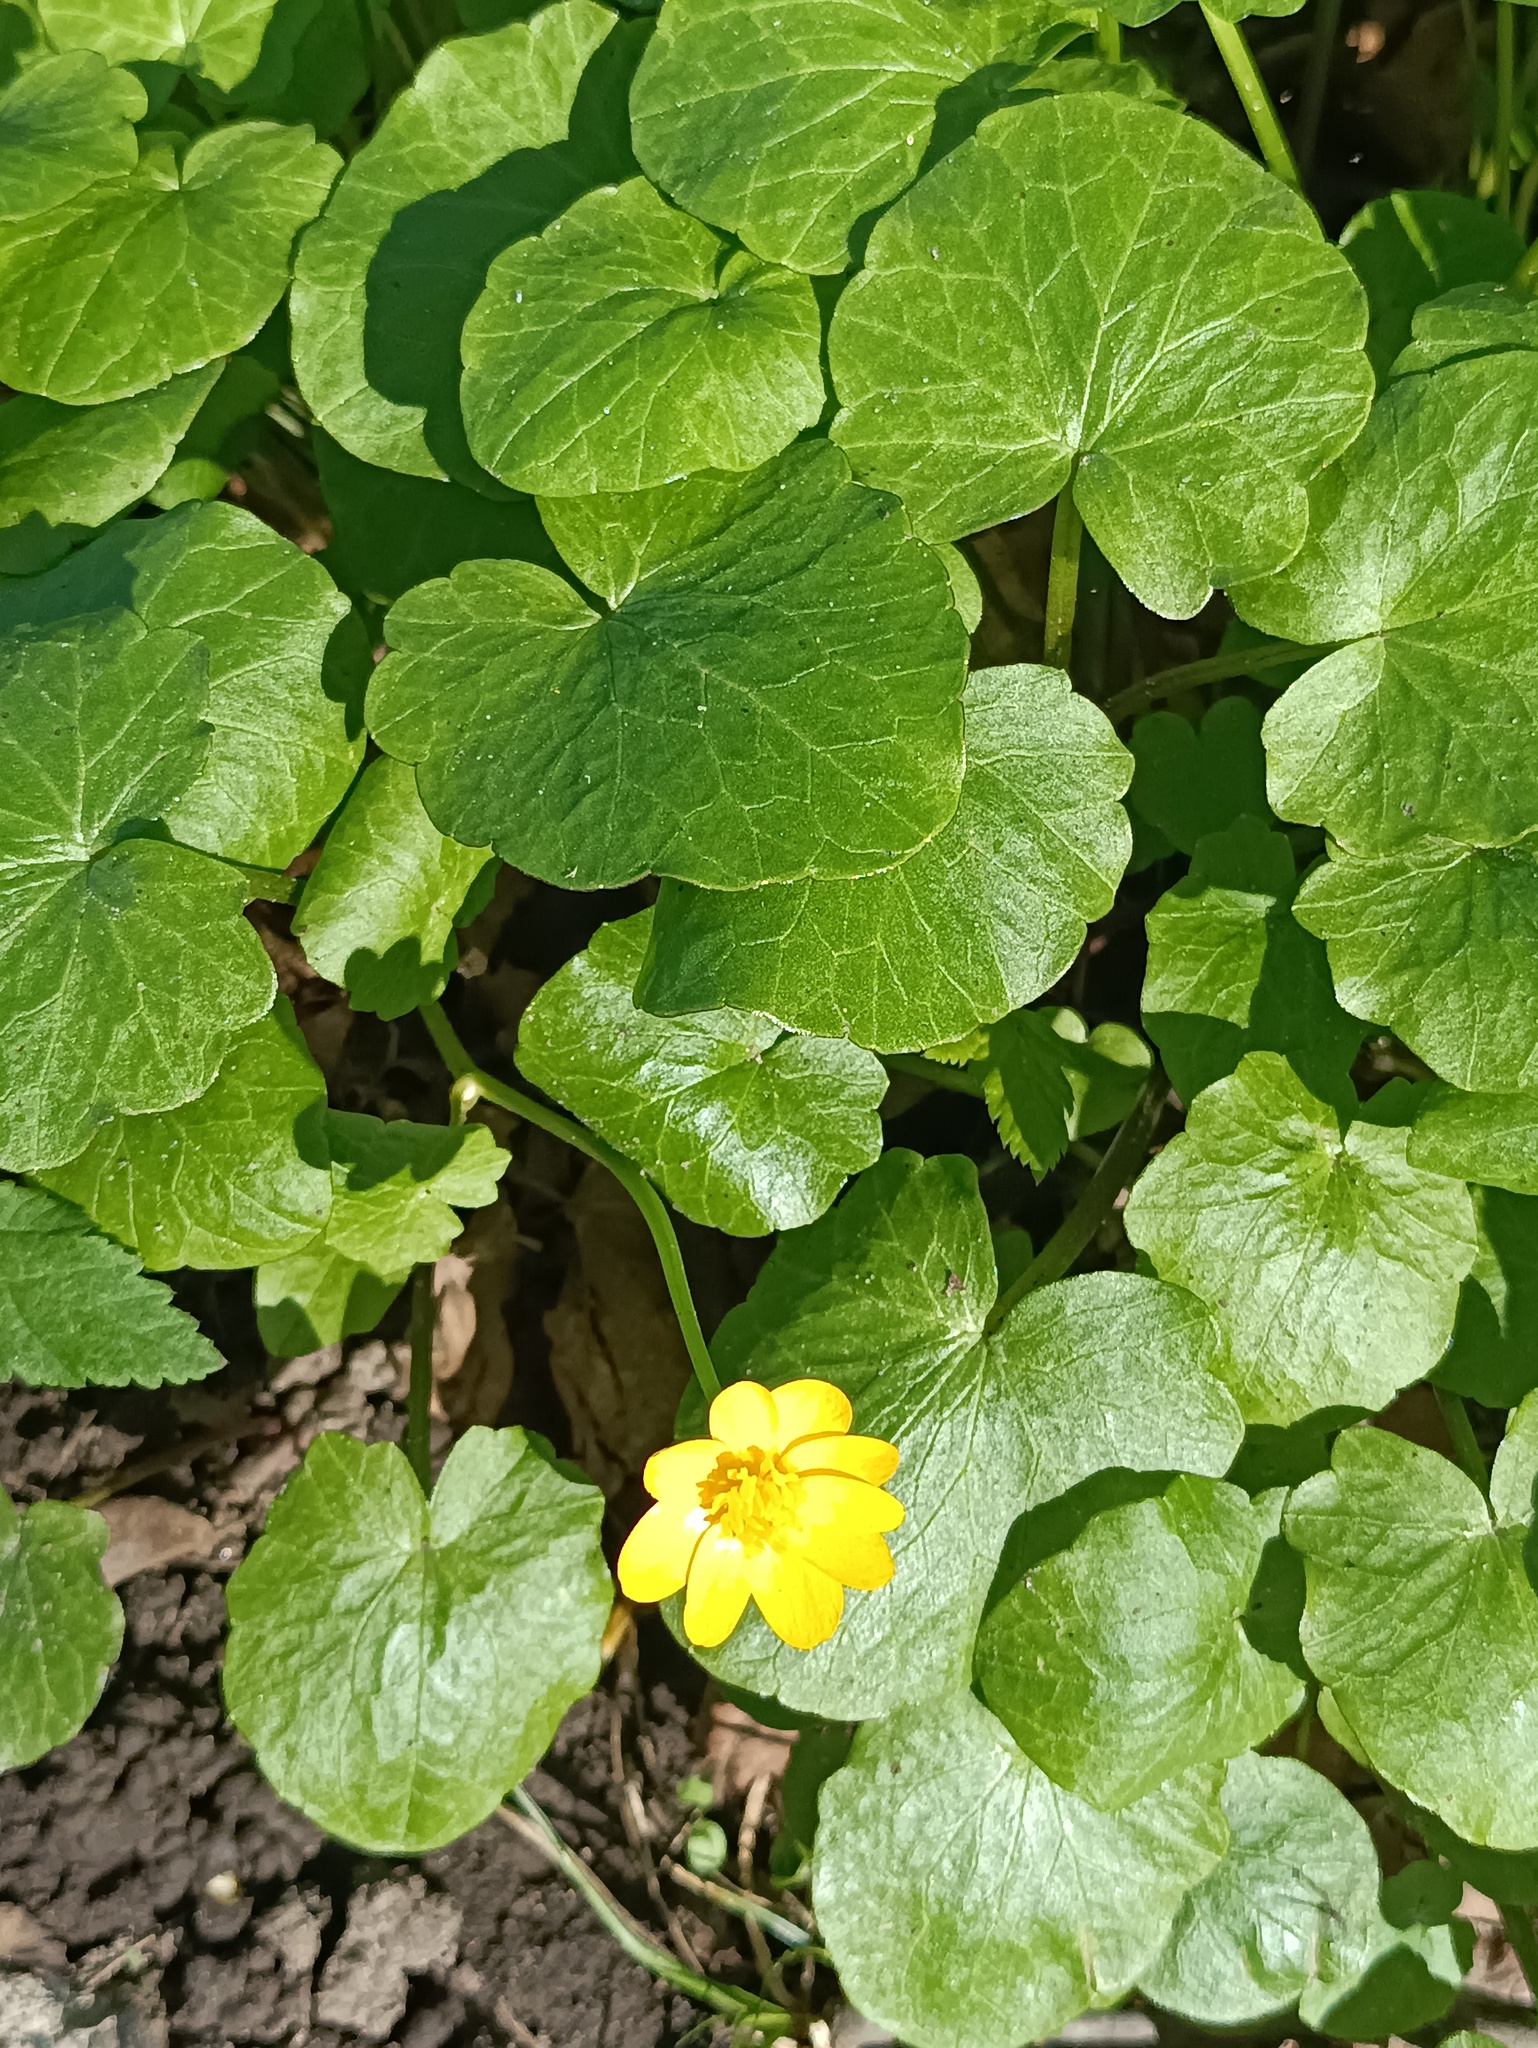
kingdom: Plantae
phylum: Tracheophyta
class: Magnoliopsida
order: Ranunculales
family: Ranunculaceae
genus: Ficaria
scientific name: Ficaria verna
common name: Lesser celandine
